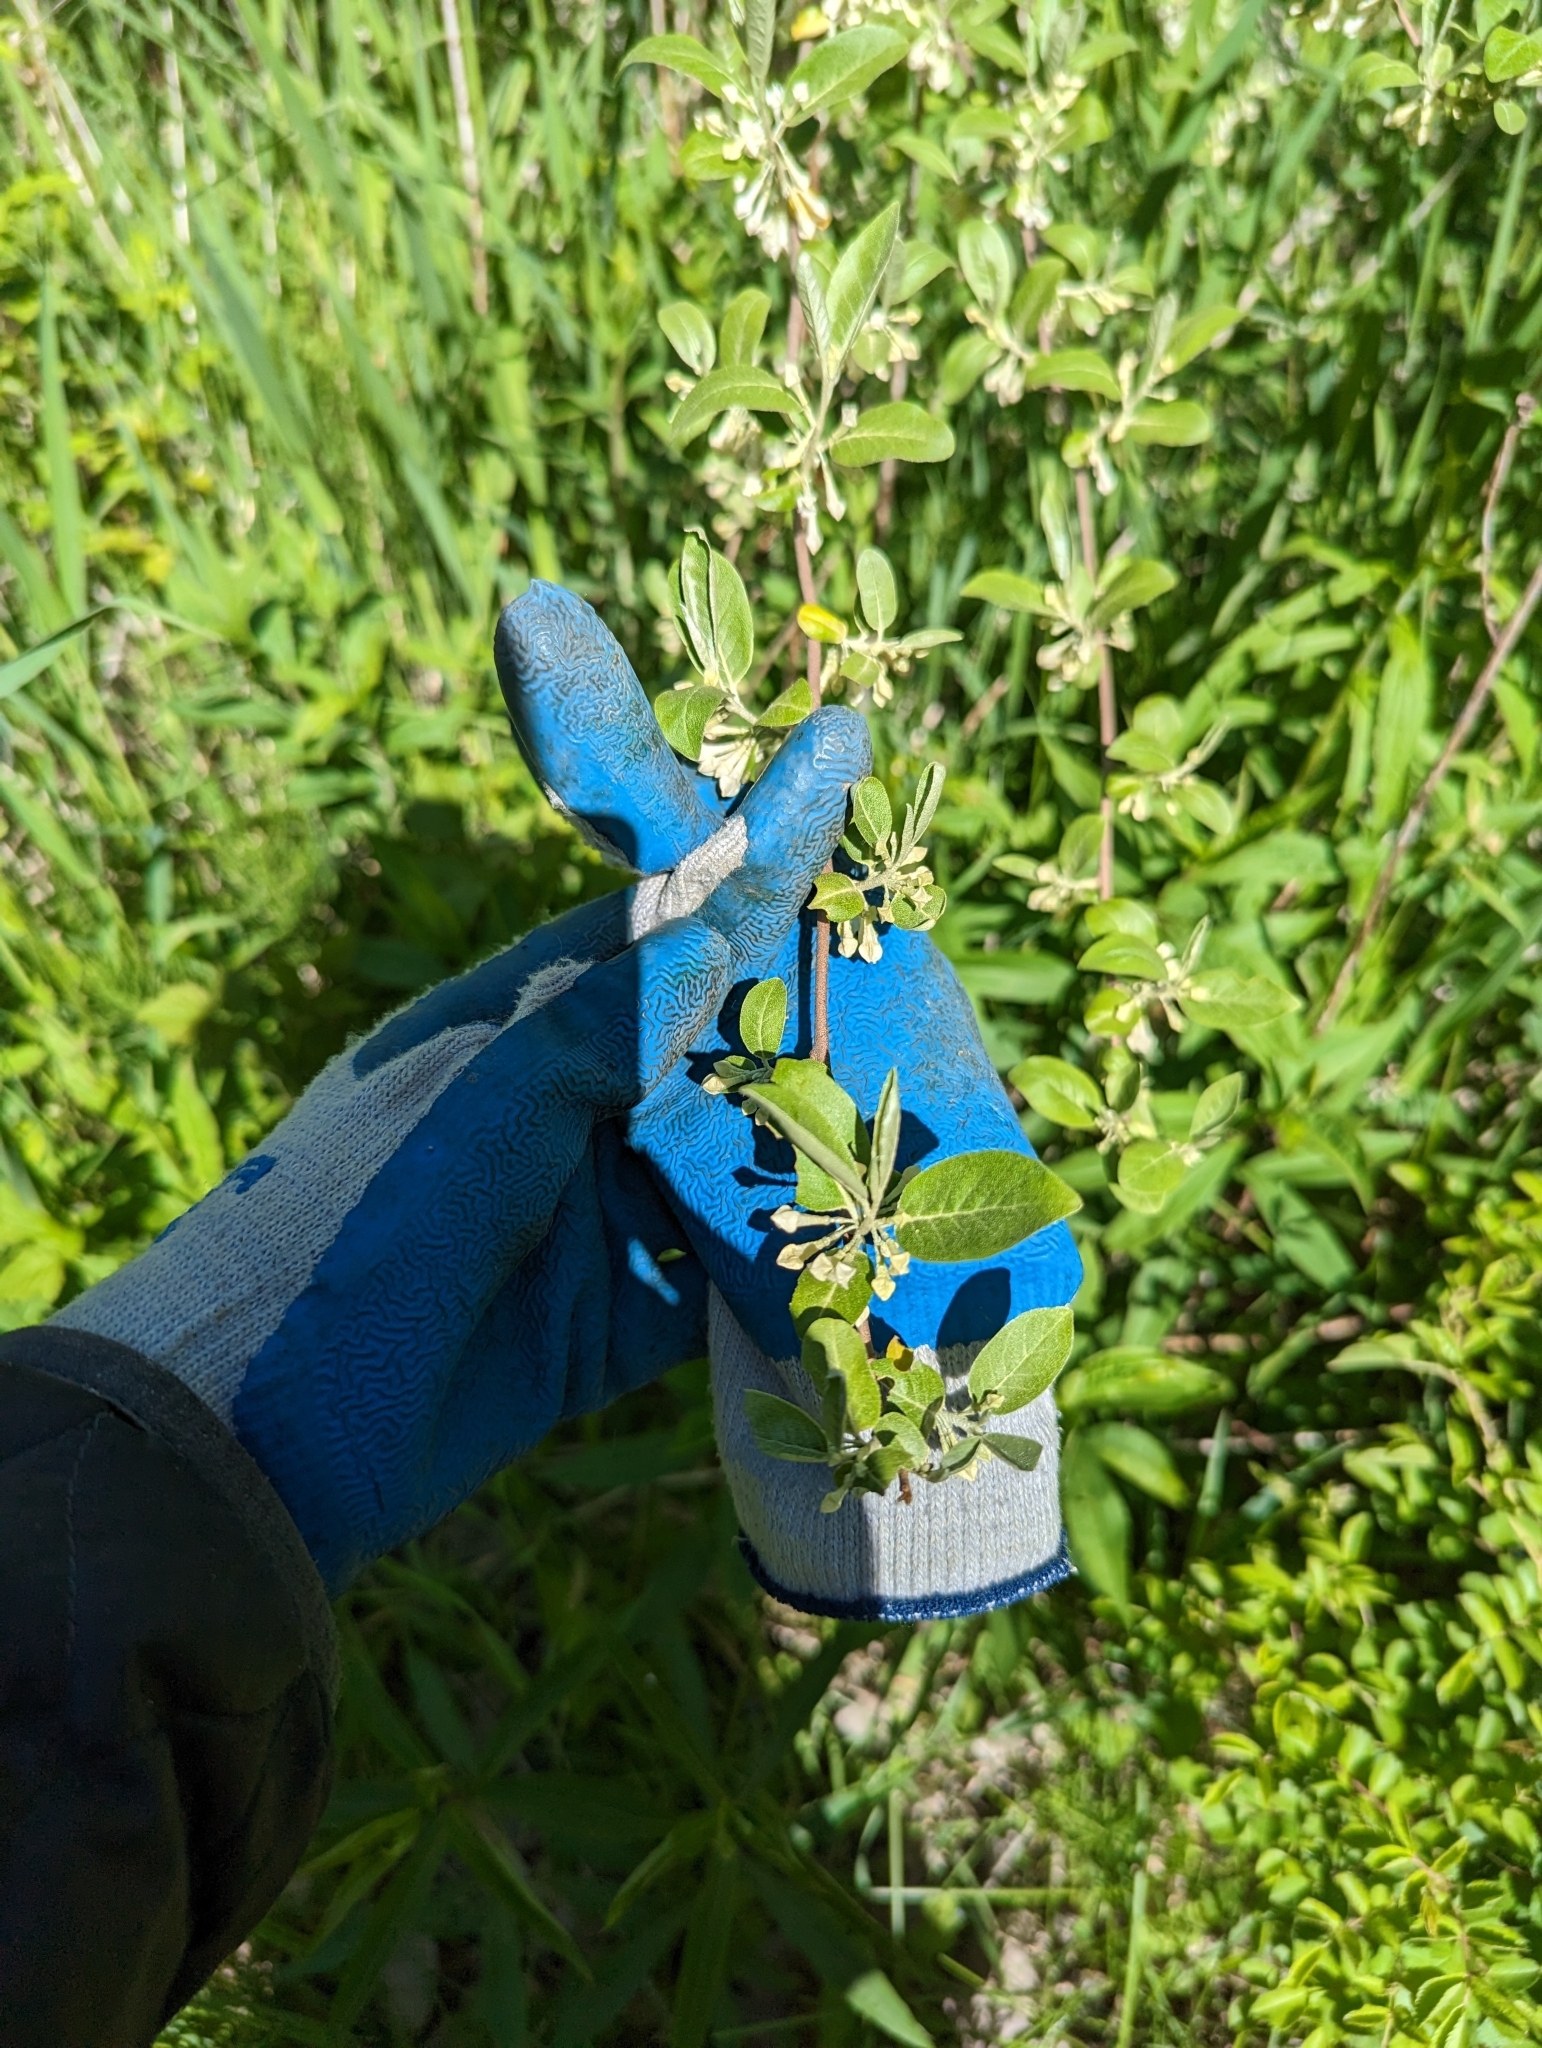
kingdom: Plantae
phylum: Tracheophyta
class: Magnoliopsida
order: Rosales
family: Elaeagnaceae
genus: Elaeagnus
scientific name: Elaeagnus umbellata
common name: Autumn olive
